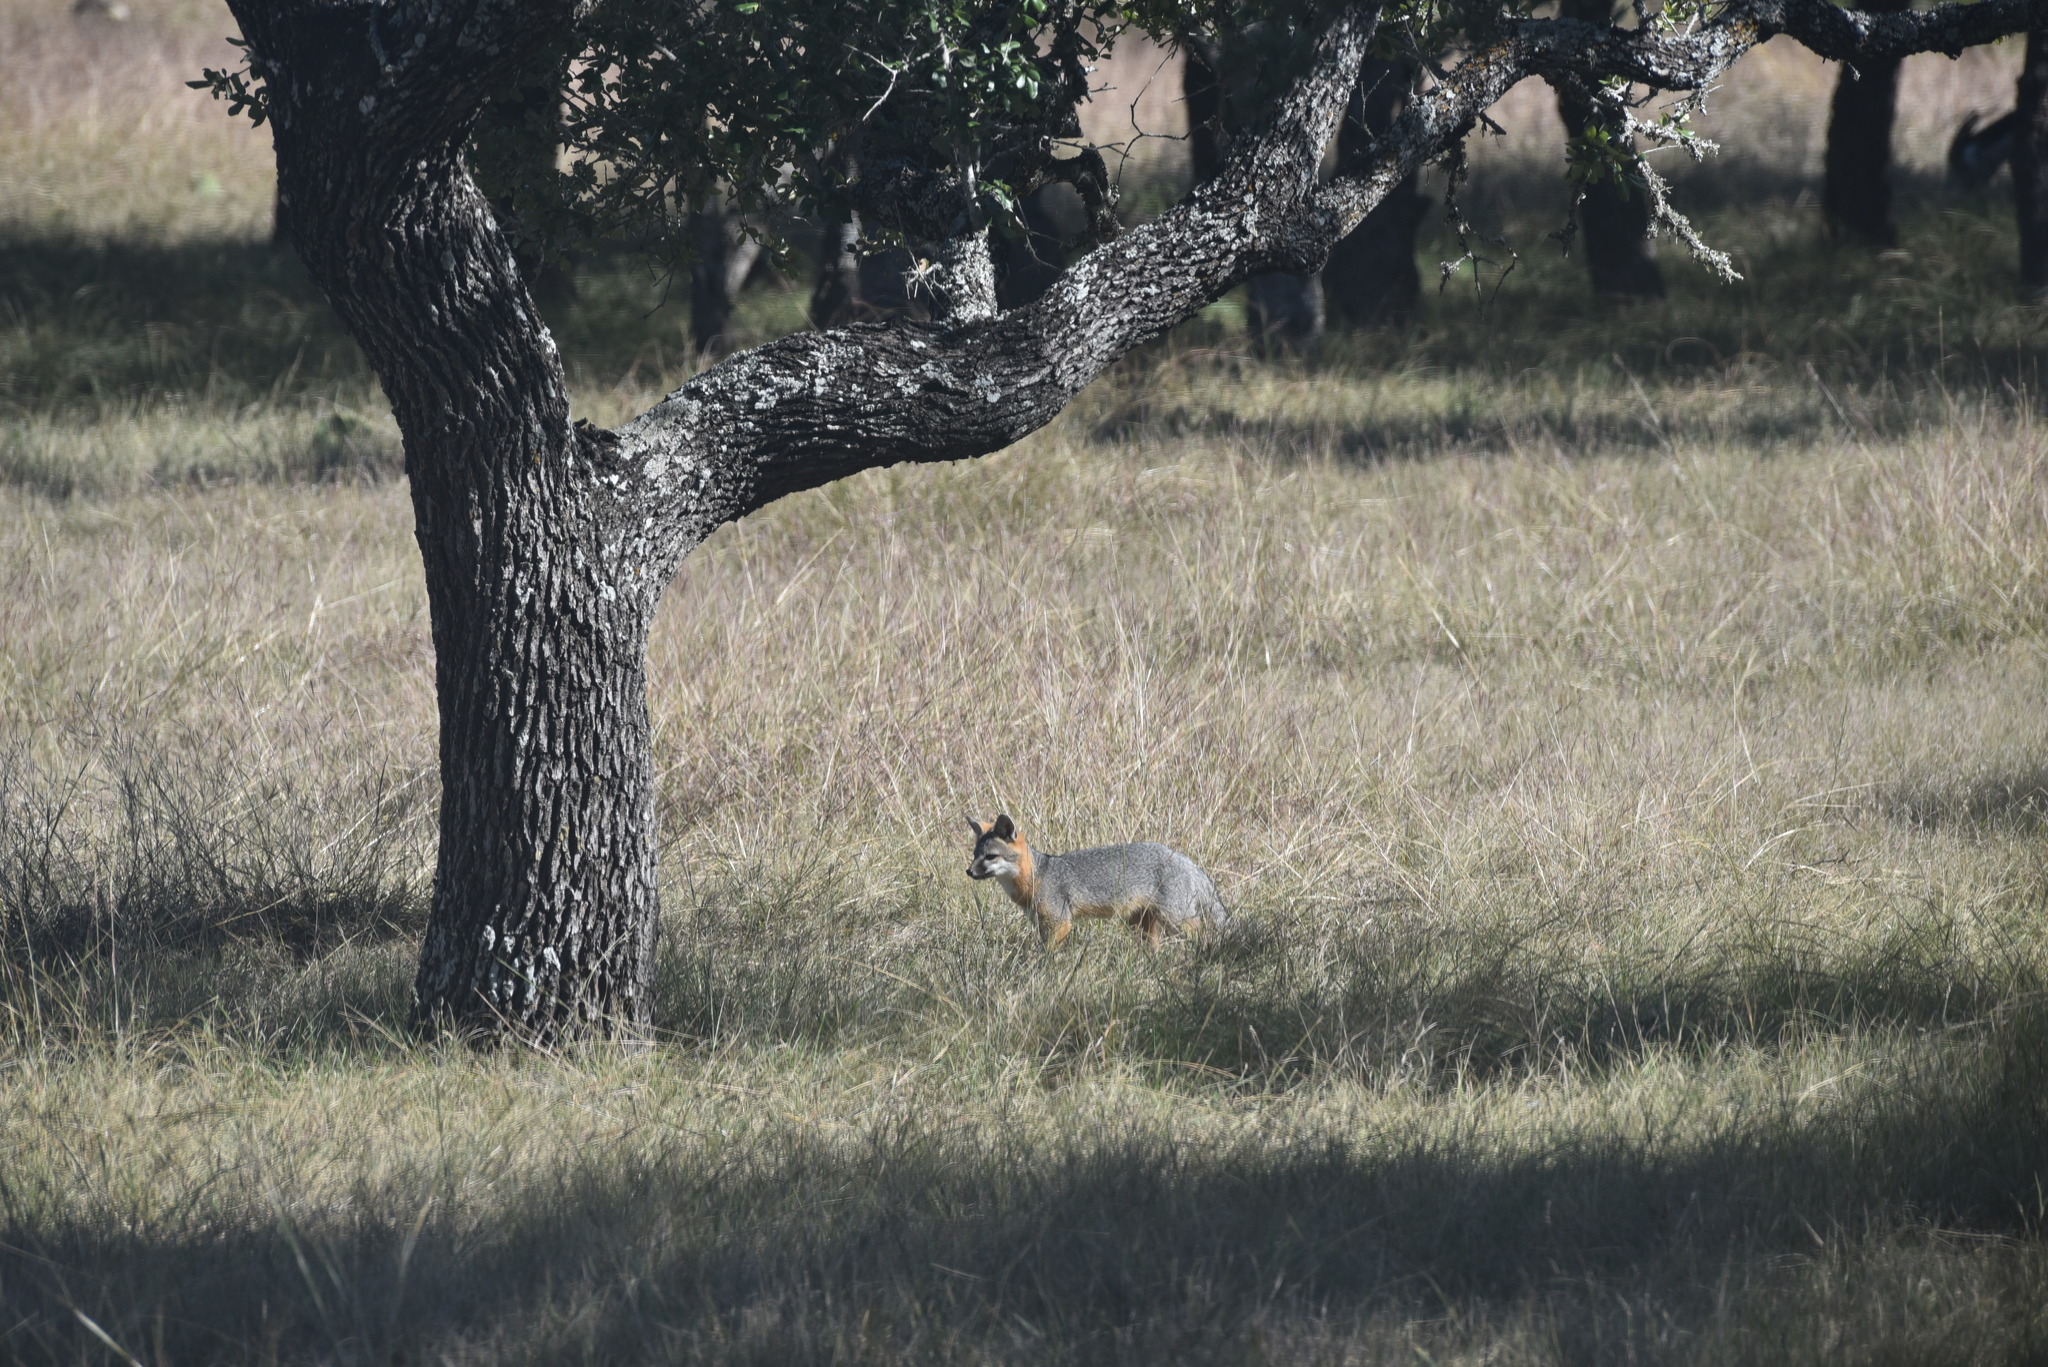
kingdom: Animalia
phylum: Chordata
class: Mammalia
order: Carnivora
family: Canidae
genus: Urocyon
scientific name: Urocyon cinereoargenteus
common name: Gray fox
